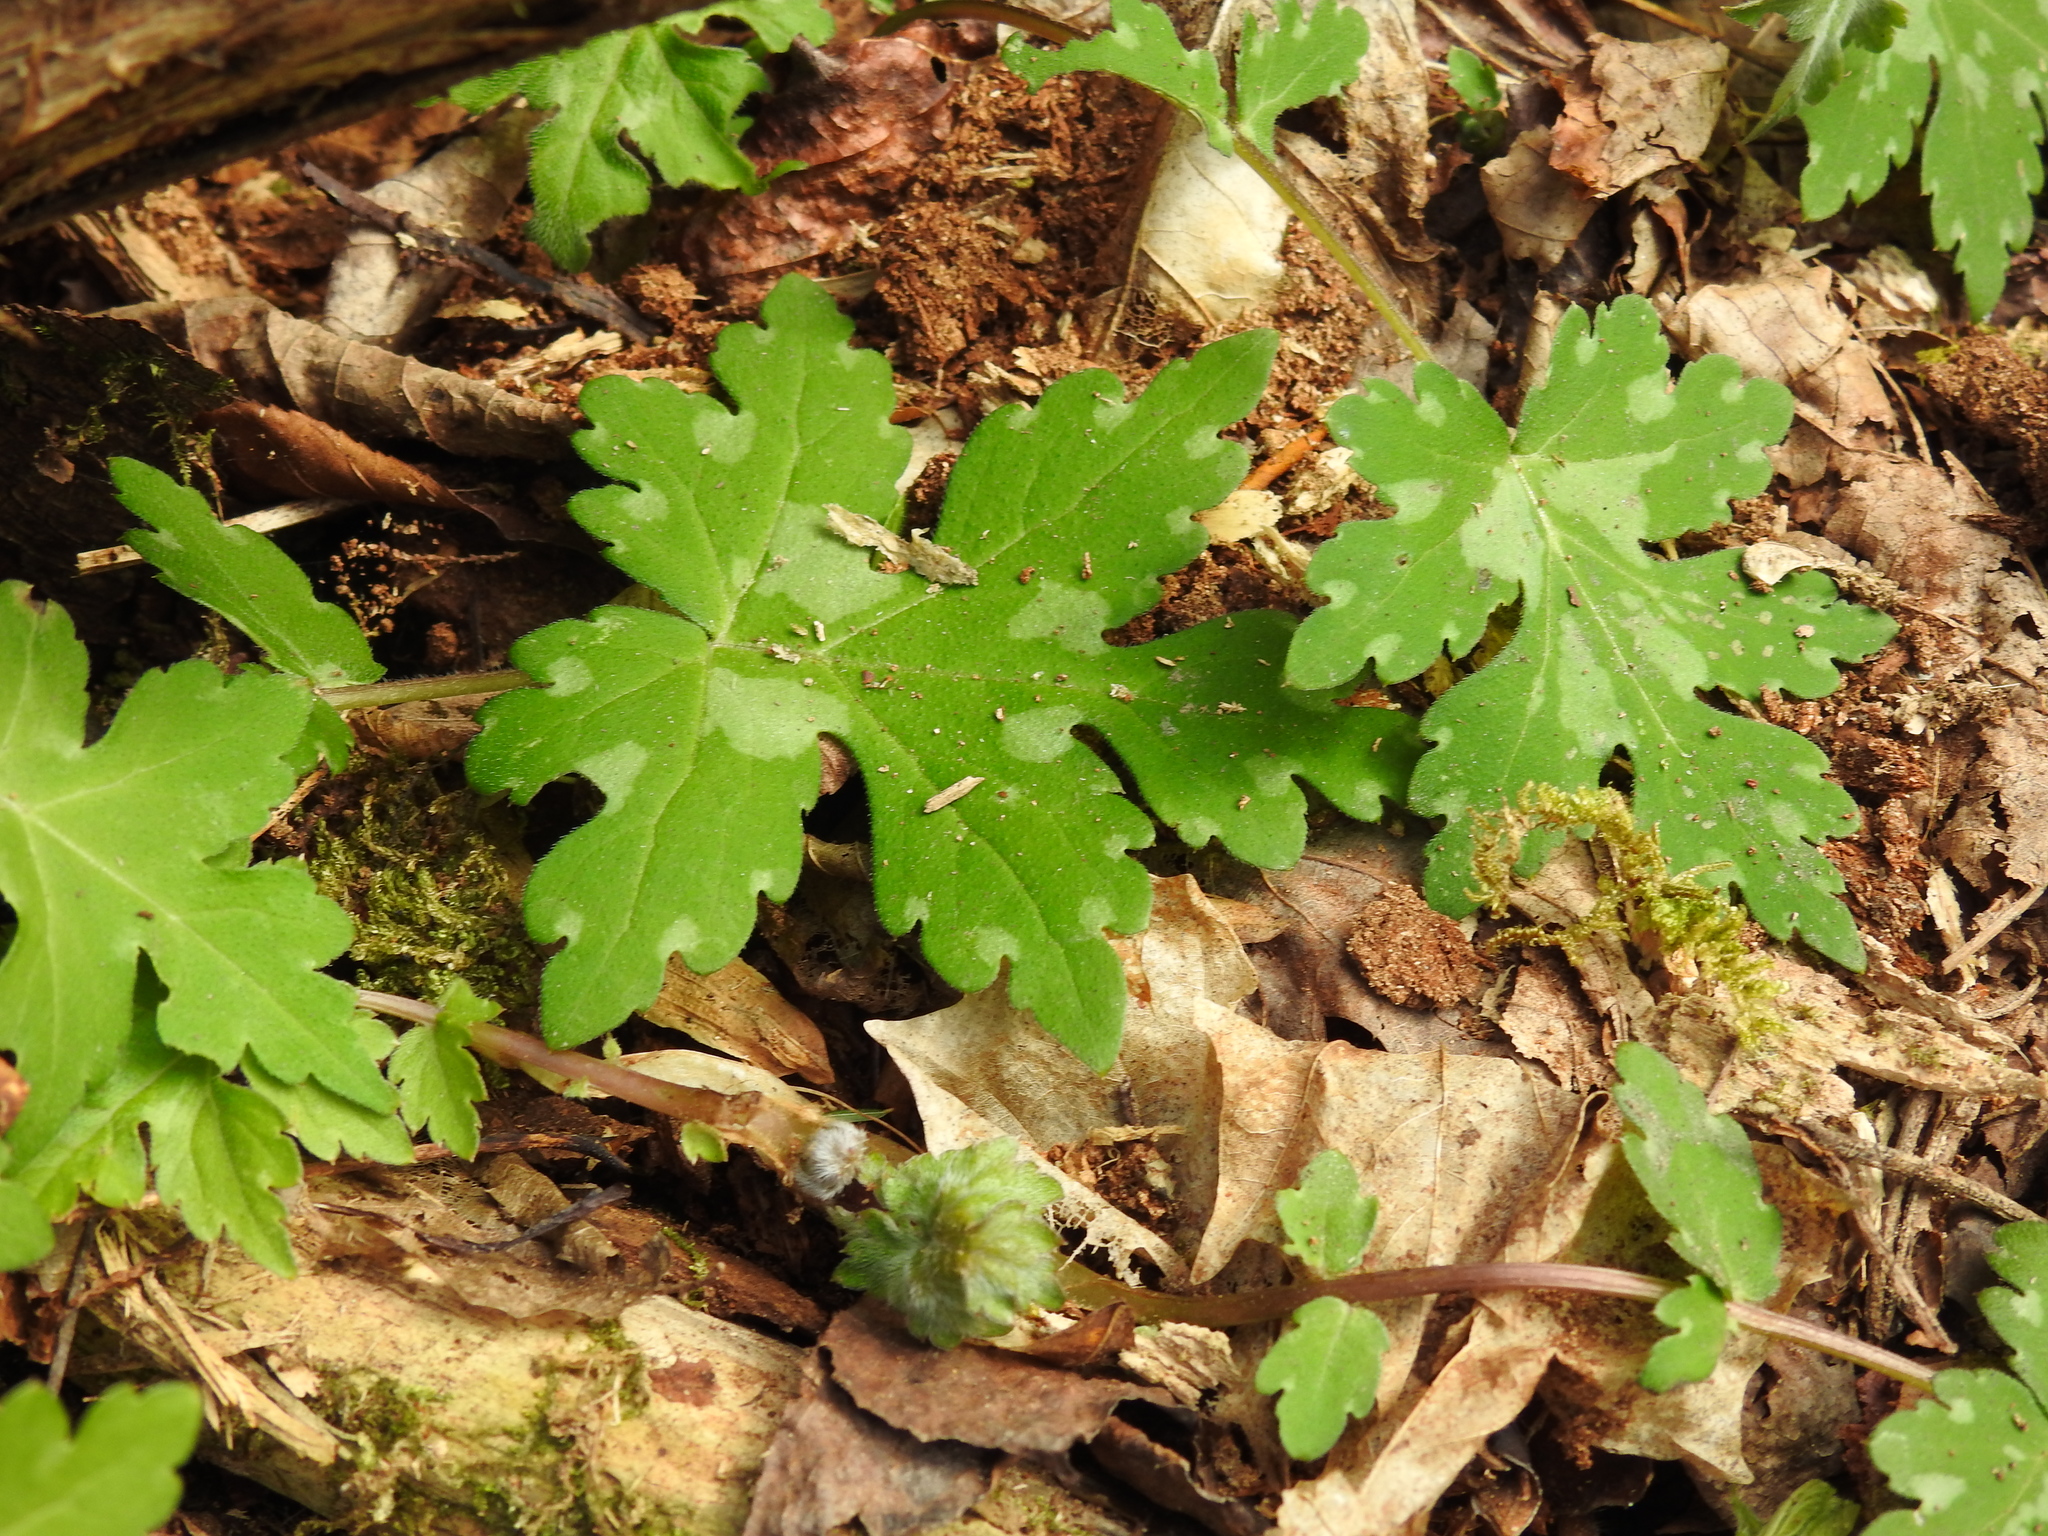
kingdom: Plantae
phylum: Tracheophyta
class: Magnoliopsida
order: Boraginales
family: Hydrophyllaceae
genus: Hydrophyllum
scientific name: Hydrophyllum canadense
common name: Canada waterleaf
